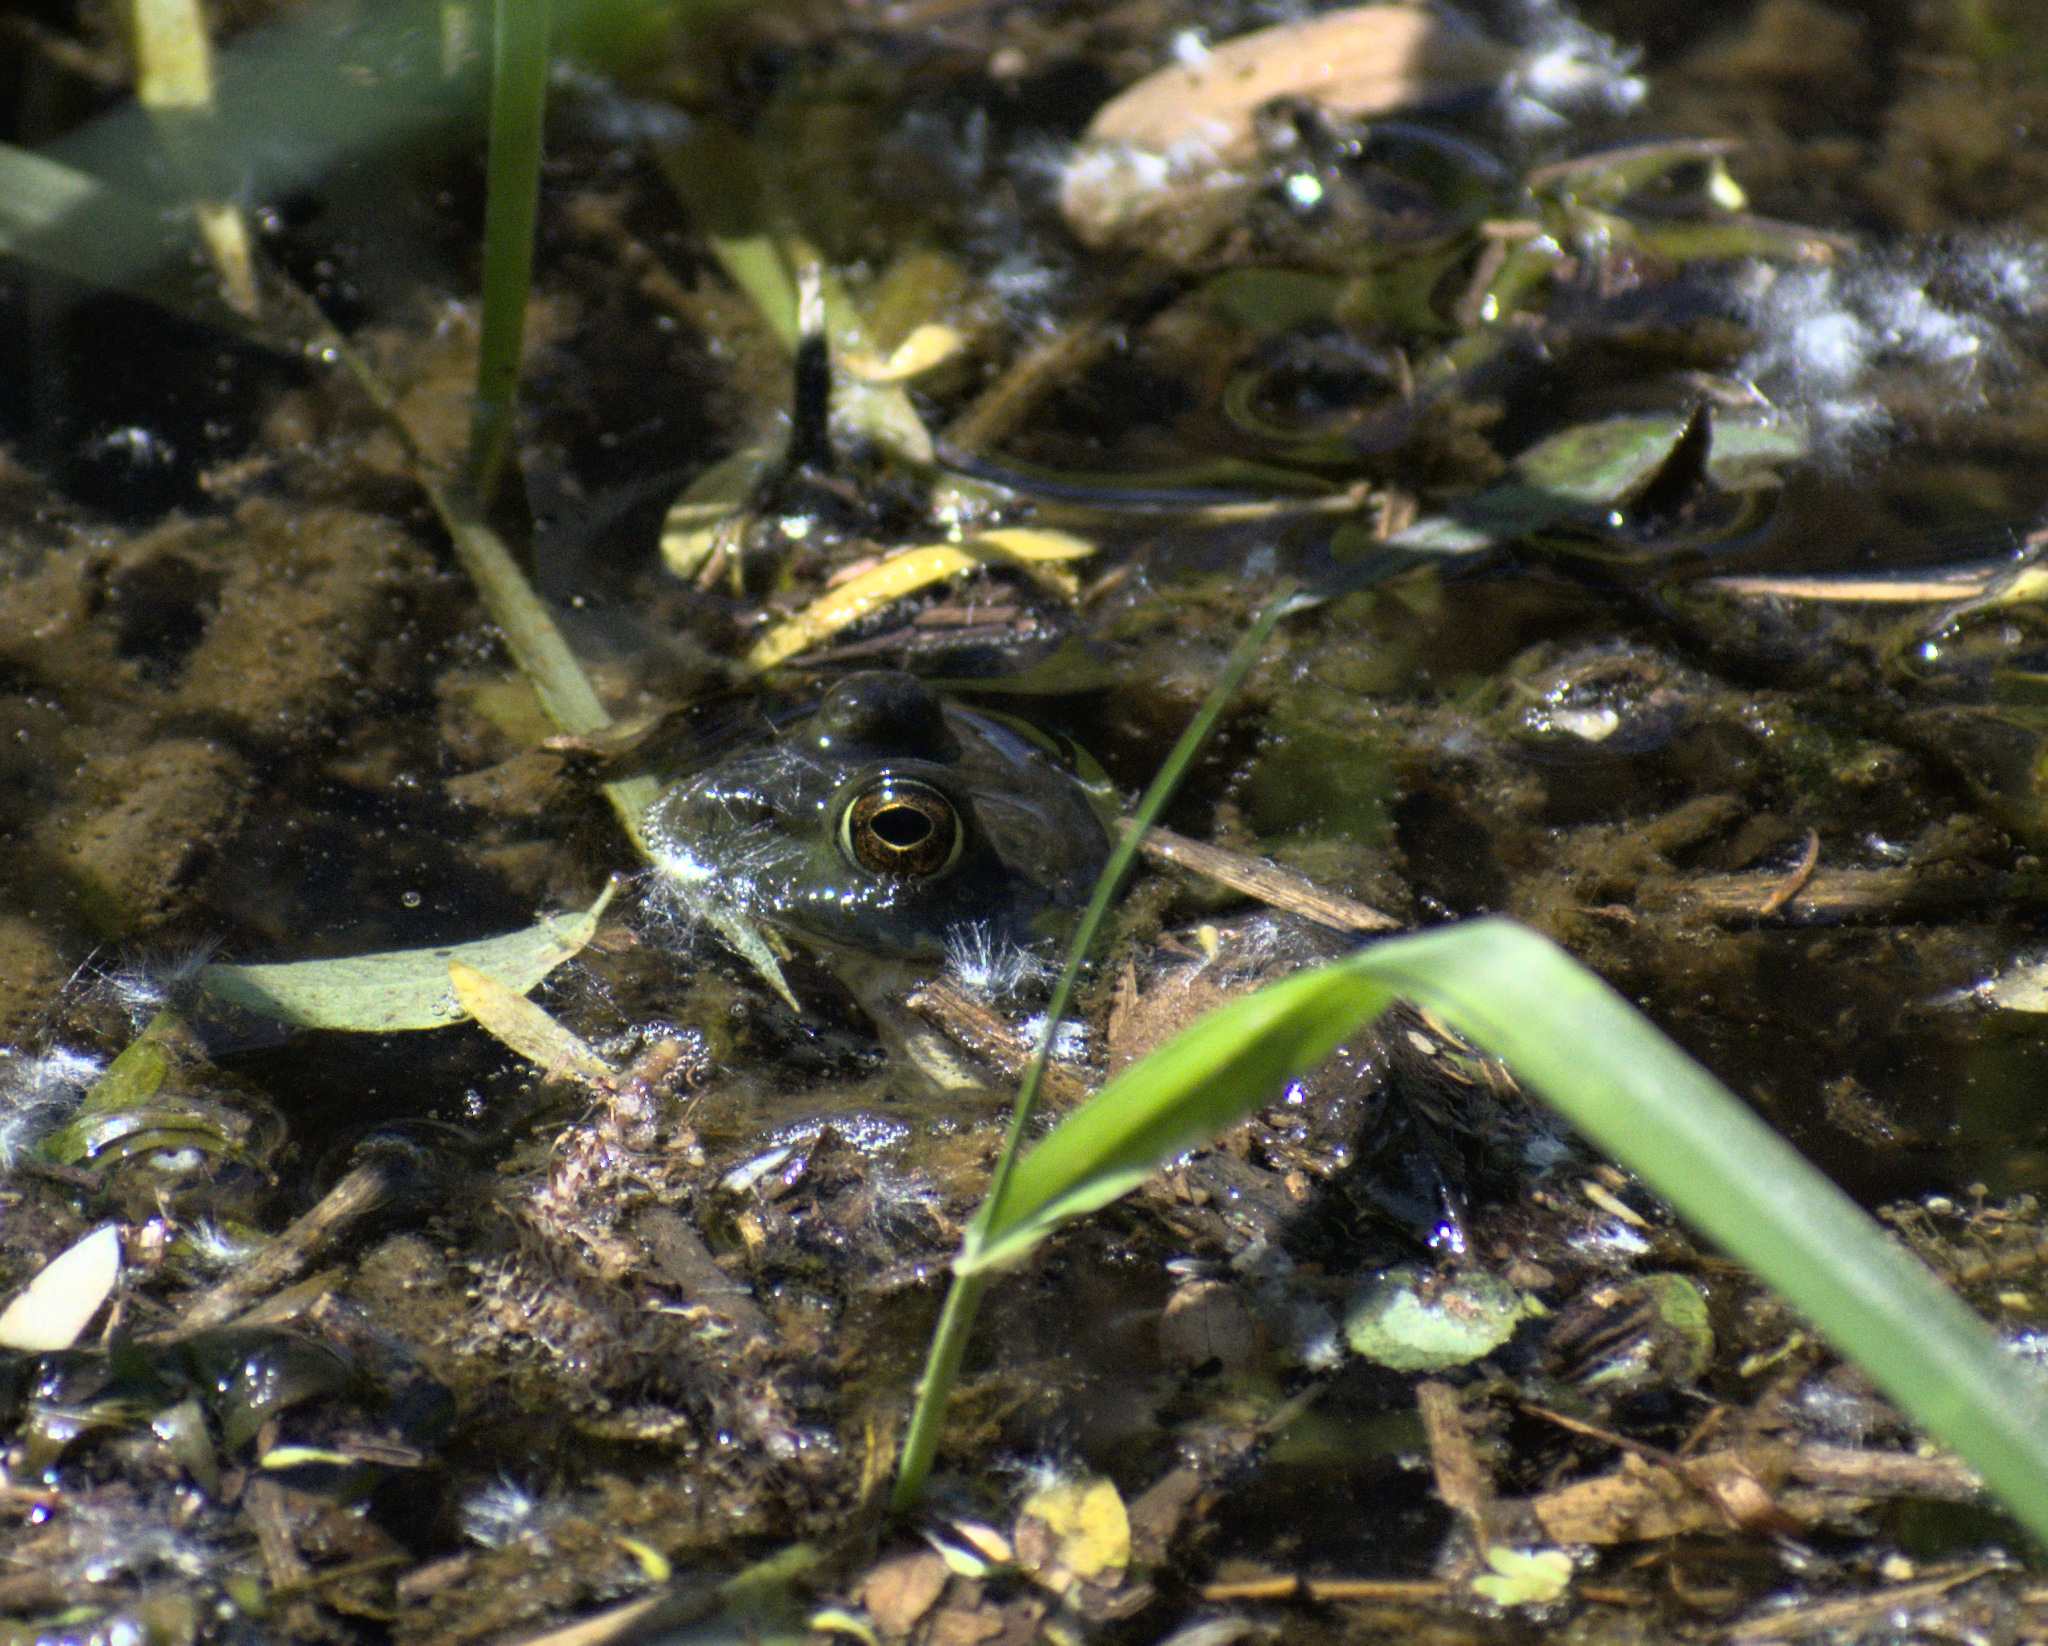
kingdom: Animalia
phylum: Chordata
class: Amphibia
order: Anura
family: Ranidae
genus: Lithobates
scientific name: Lithobates catesbeianus
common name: American bullfrog
